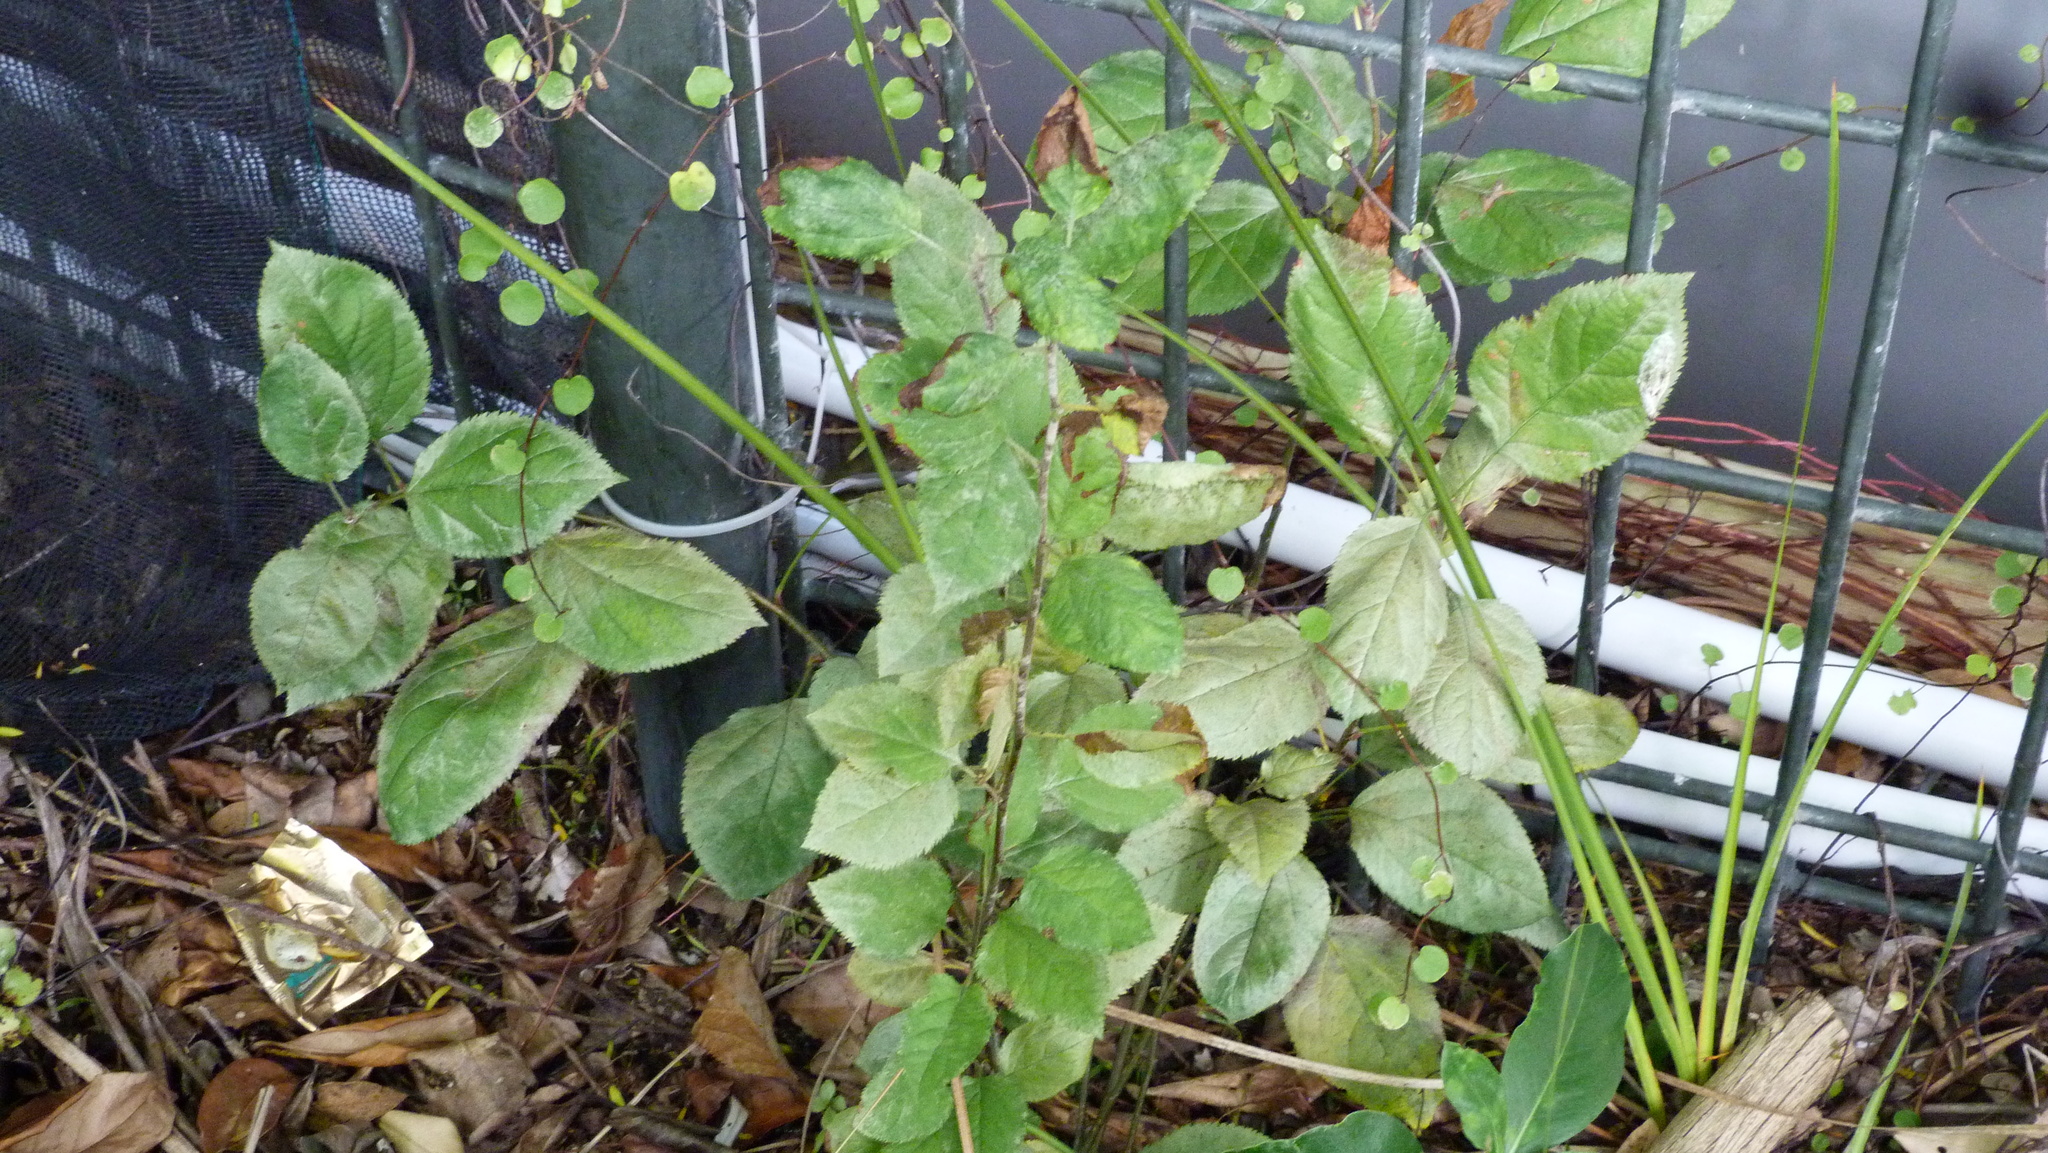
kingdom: Plantae
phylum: Tracheophyta
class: Magnoliopsida
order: Rosales
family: Rosaceae
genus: Prunus
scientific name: Prunus
